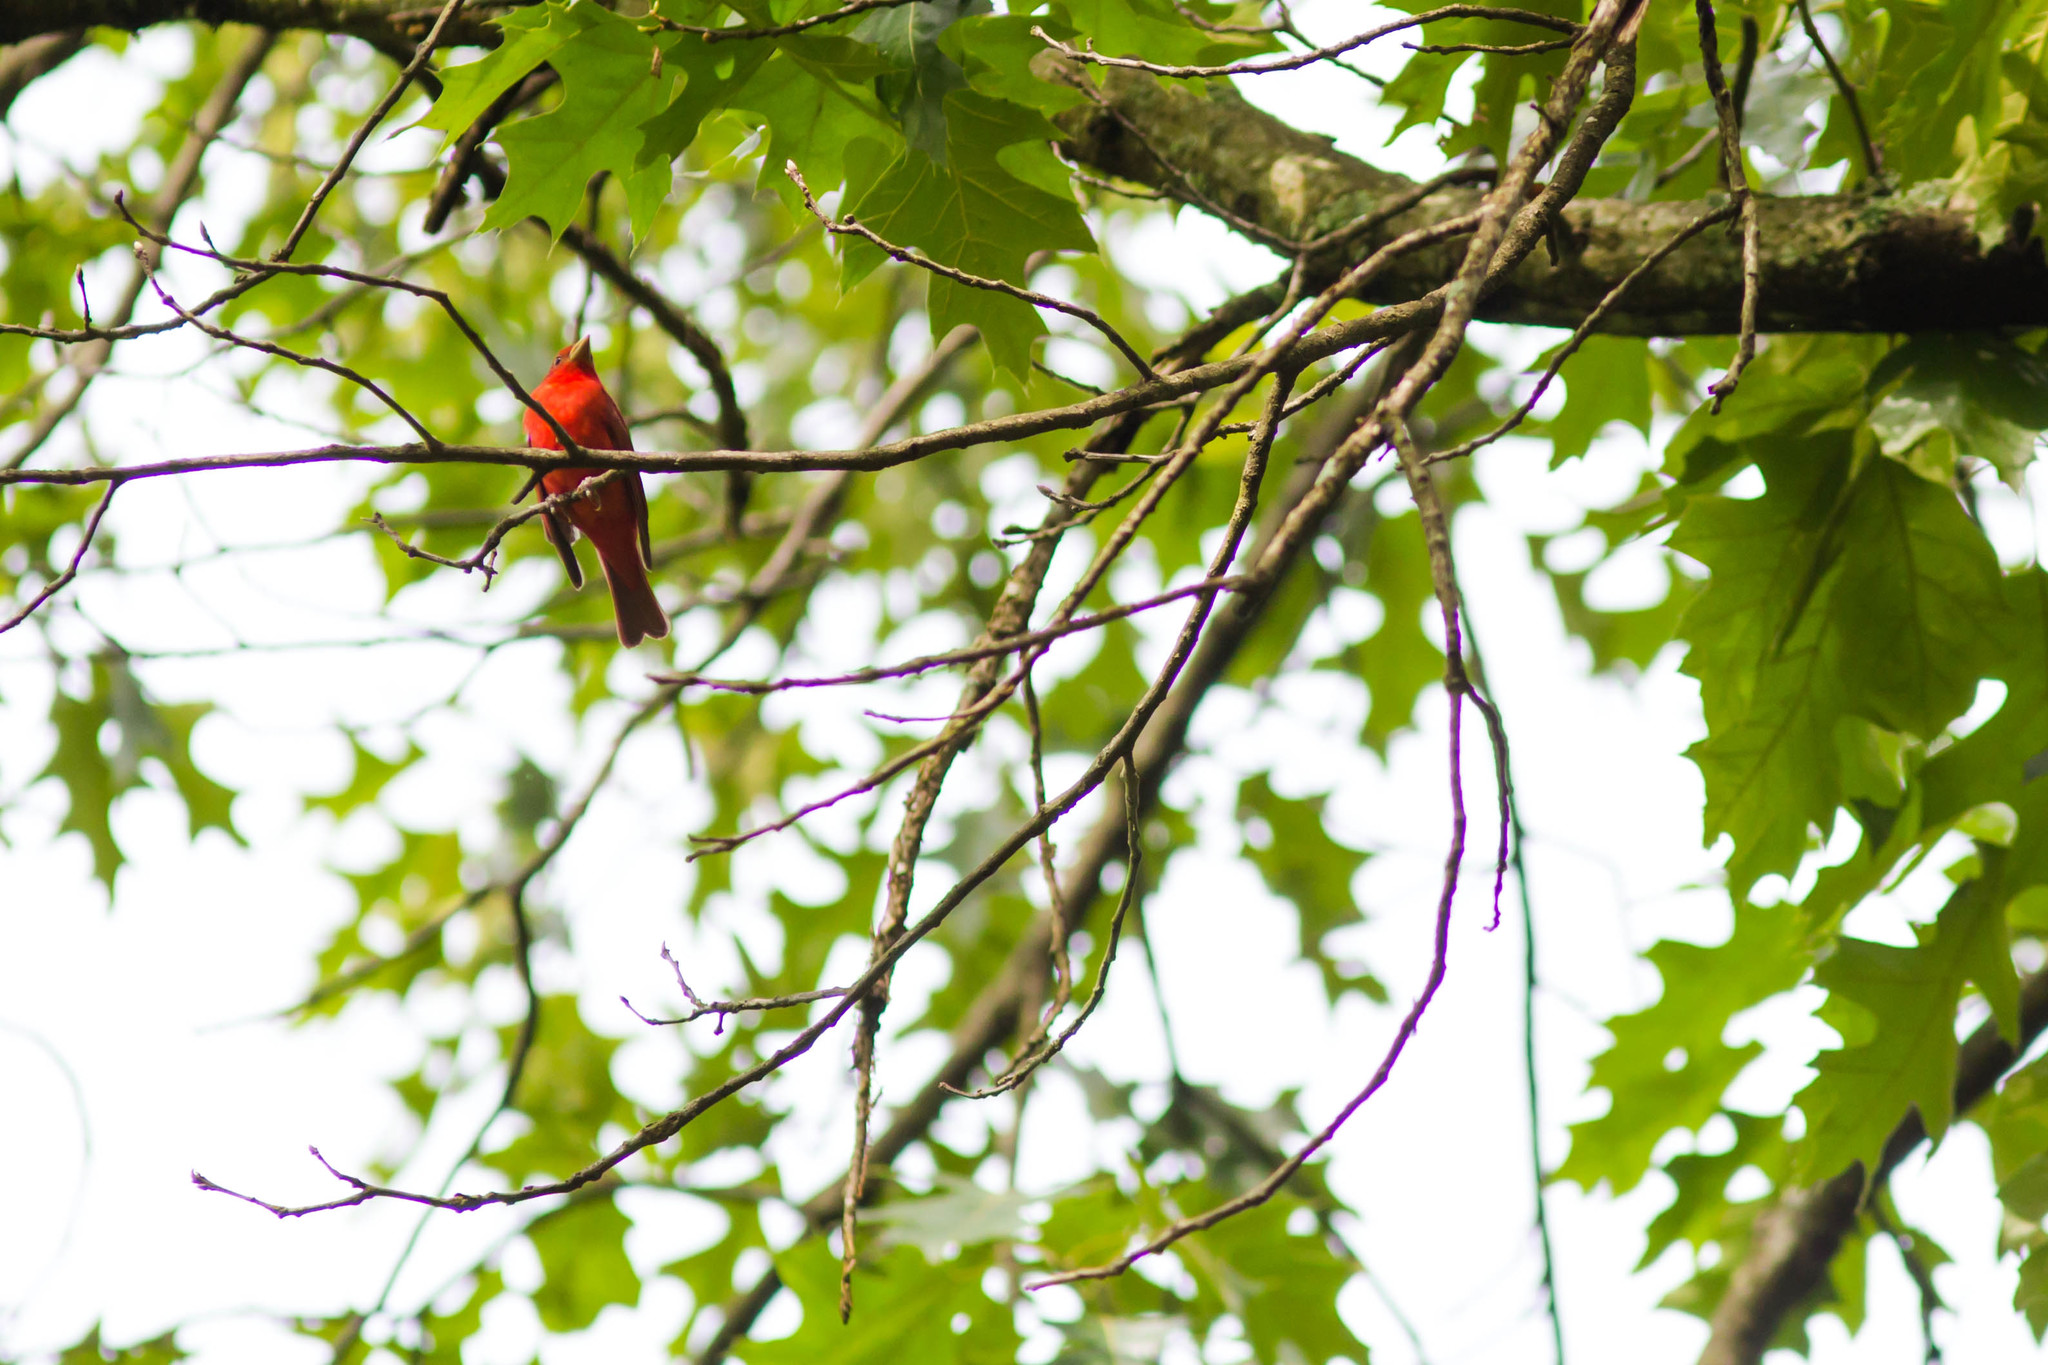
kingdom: Animalia
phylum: Chordata
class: Aves
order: Passeriformes
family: Cardinalidae
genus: Piranga
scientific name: Piranga rubra
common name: Summer tanager
